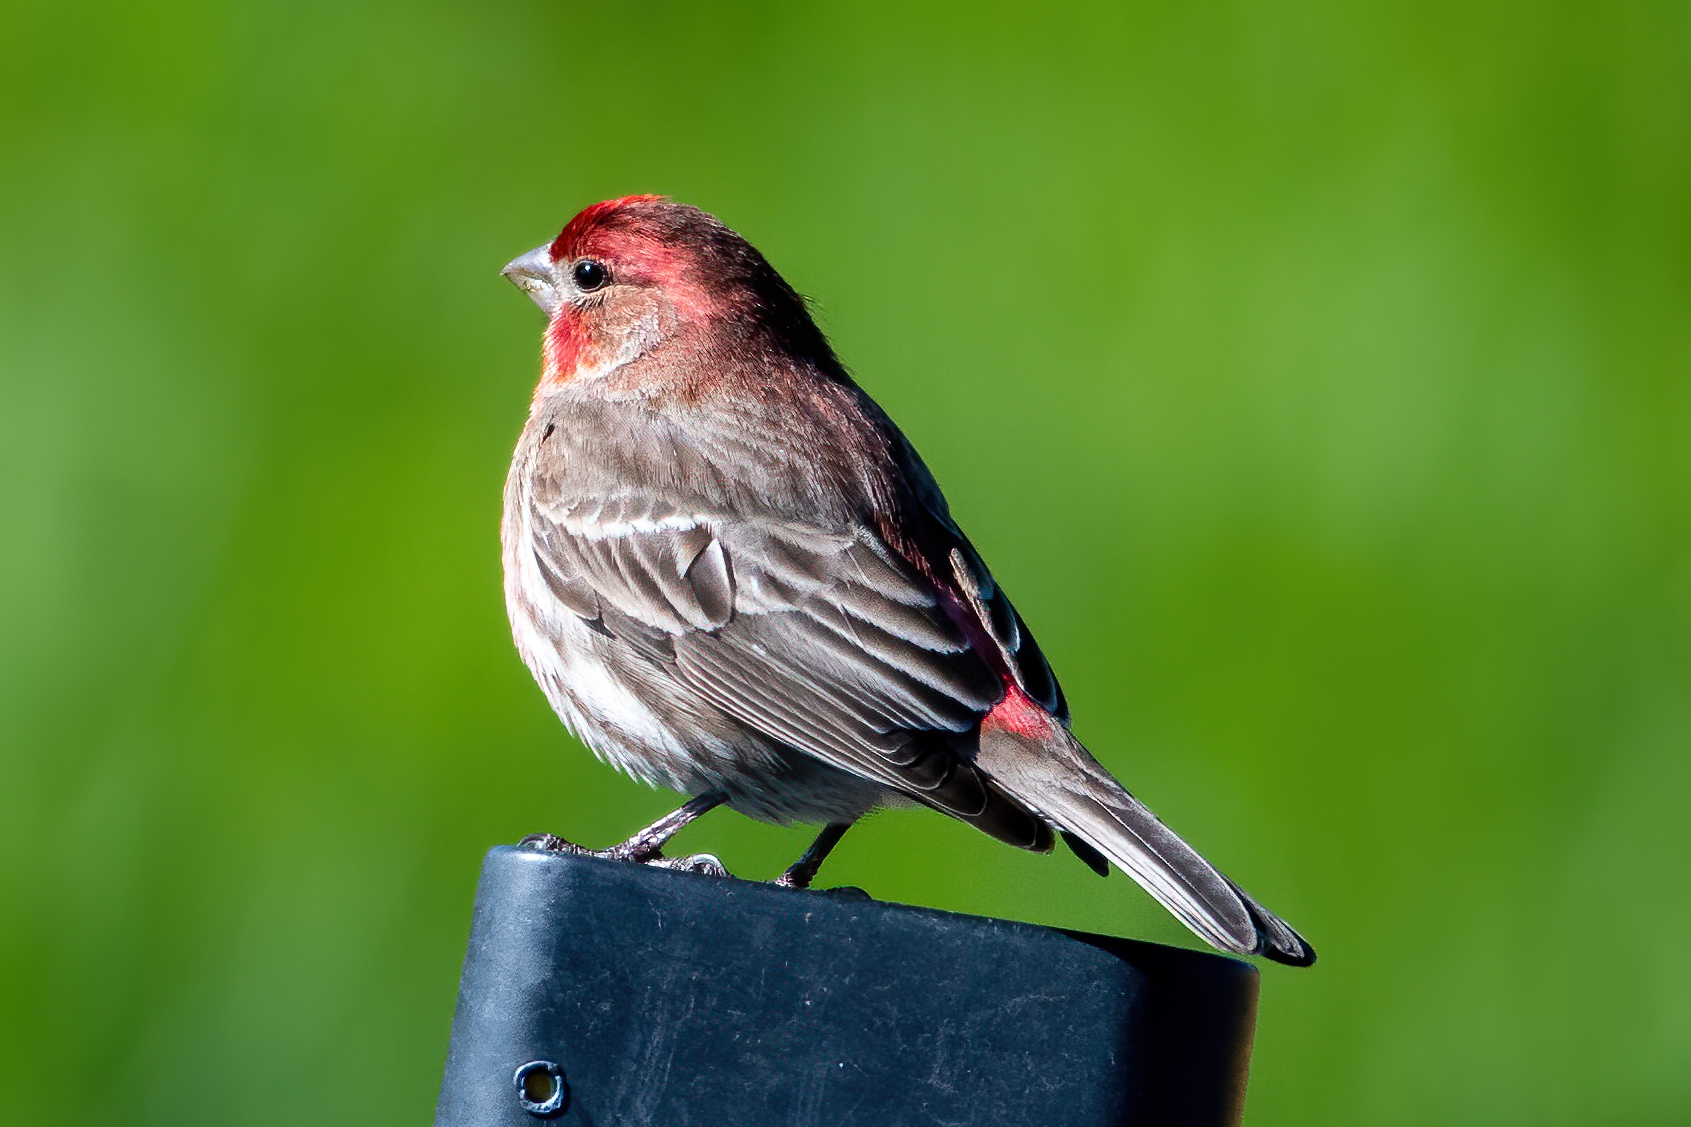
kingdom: Animalia
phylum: Chordata
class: Aves
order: Passeriformes
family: Fringillidae
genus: Haemorhous
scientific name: Haemorhous mexicanus
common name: House finch
